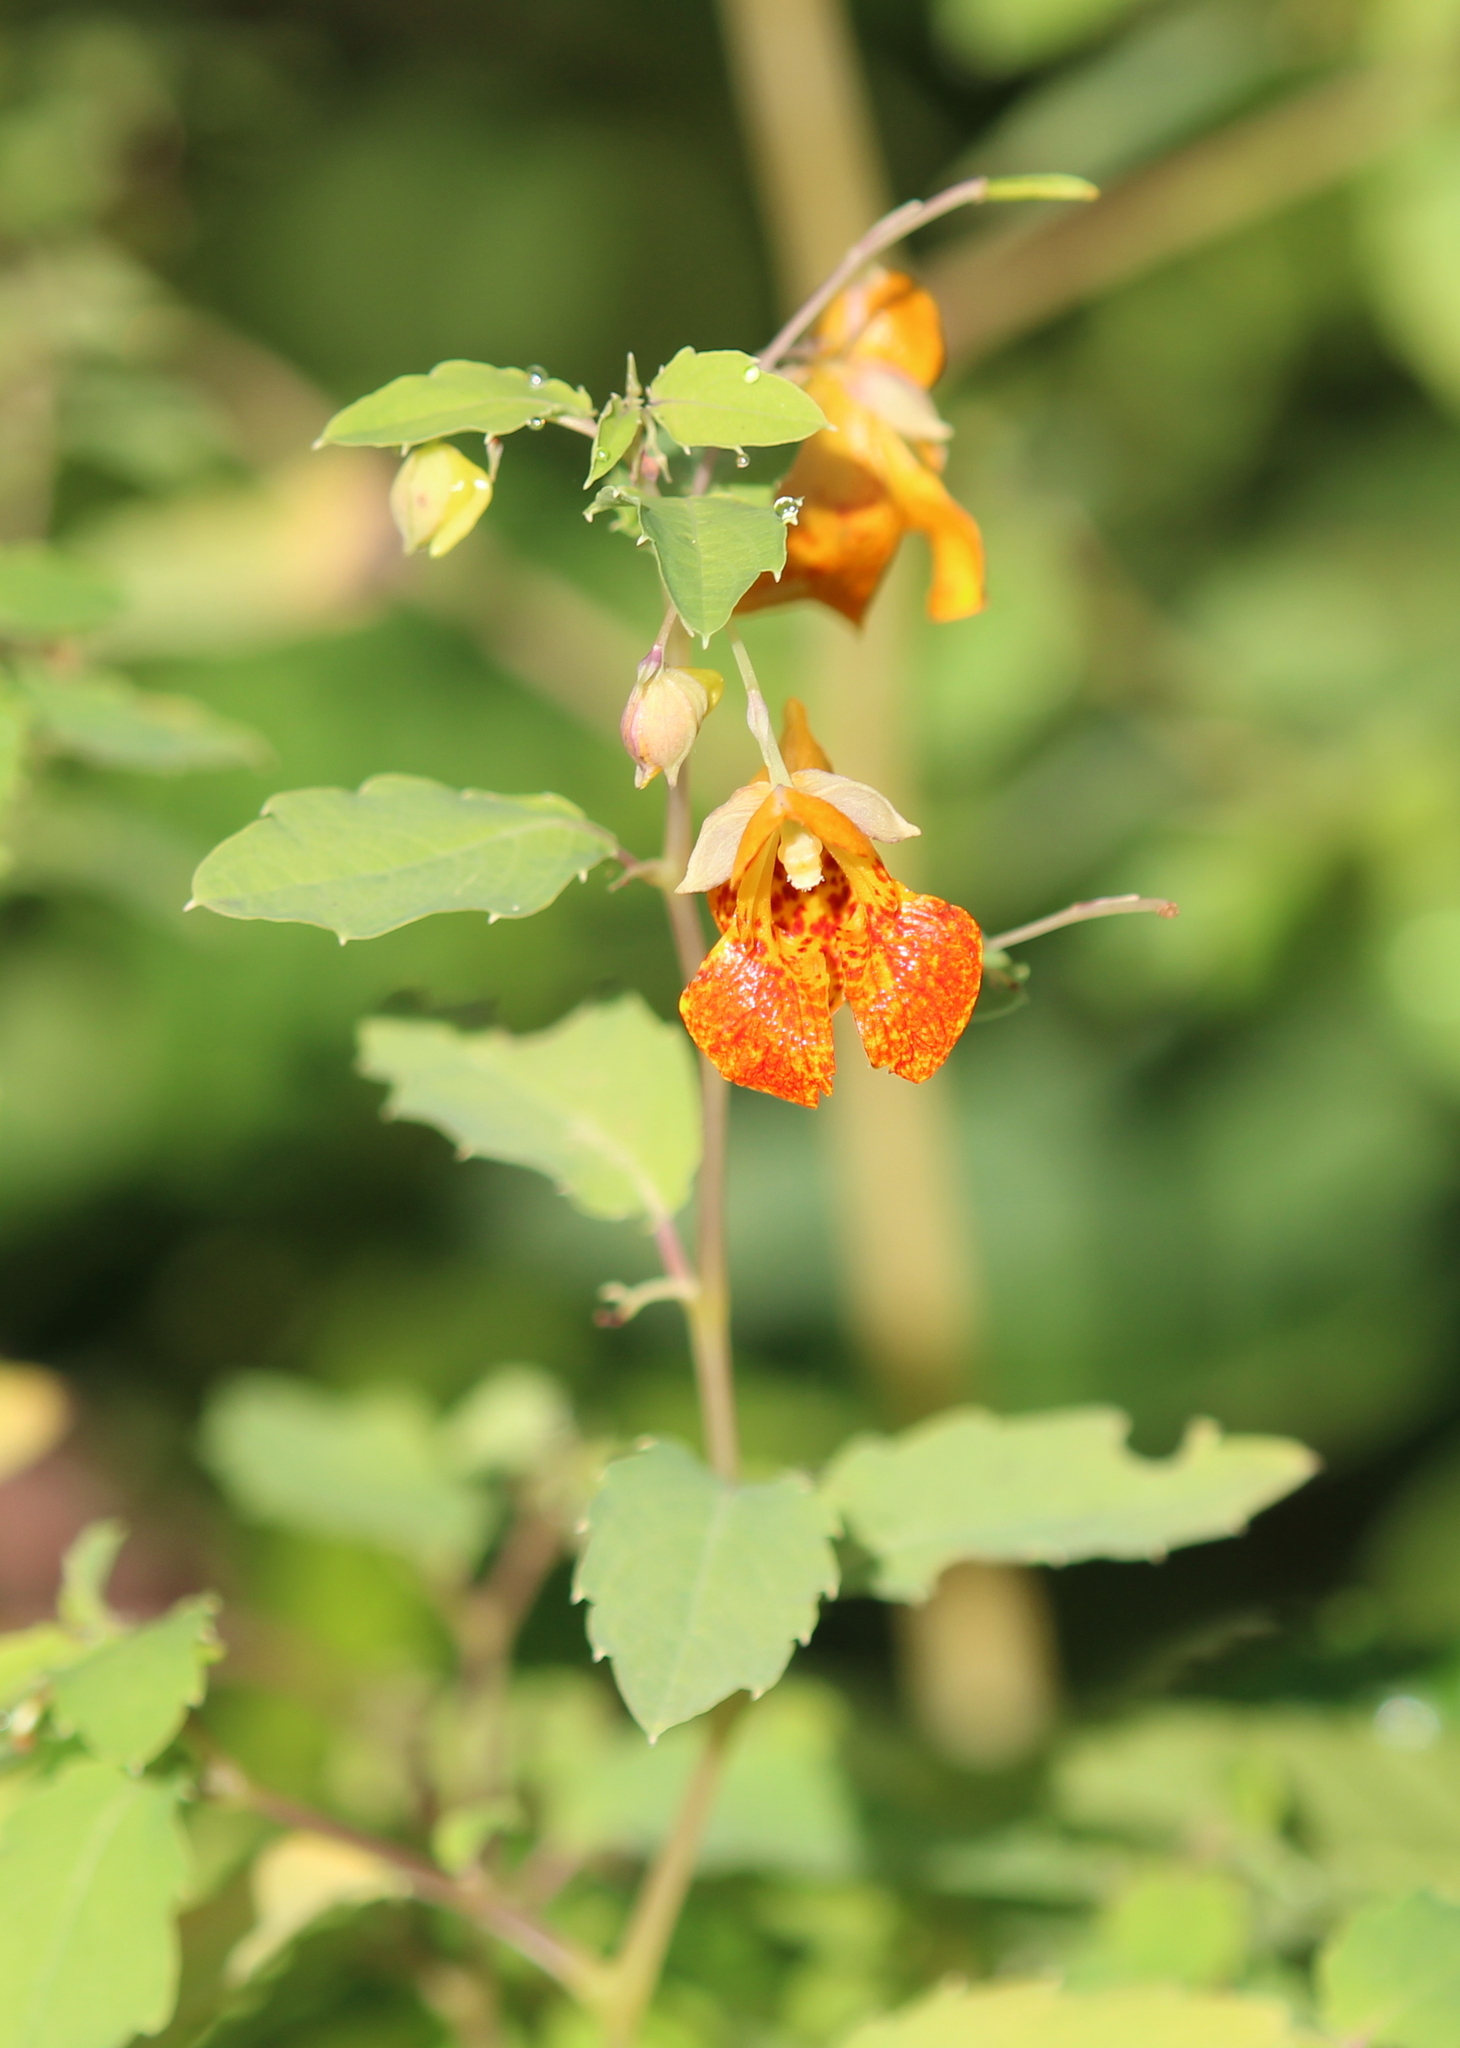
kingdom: Plantae
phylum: Tracheophyta
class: Magnoliopsida
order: Ericales
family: Balsaminaceae
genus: Impatiens
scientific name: Impatiens capensis
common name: Orange balsam
